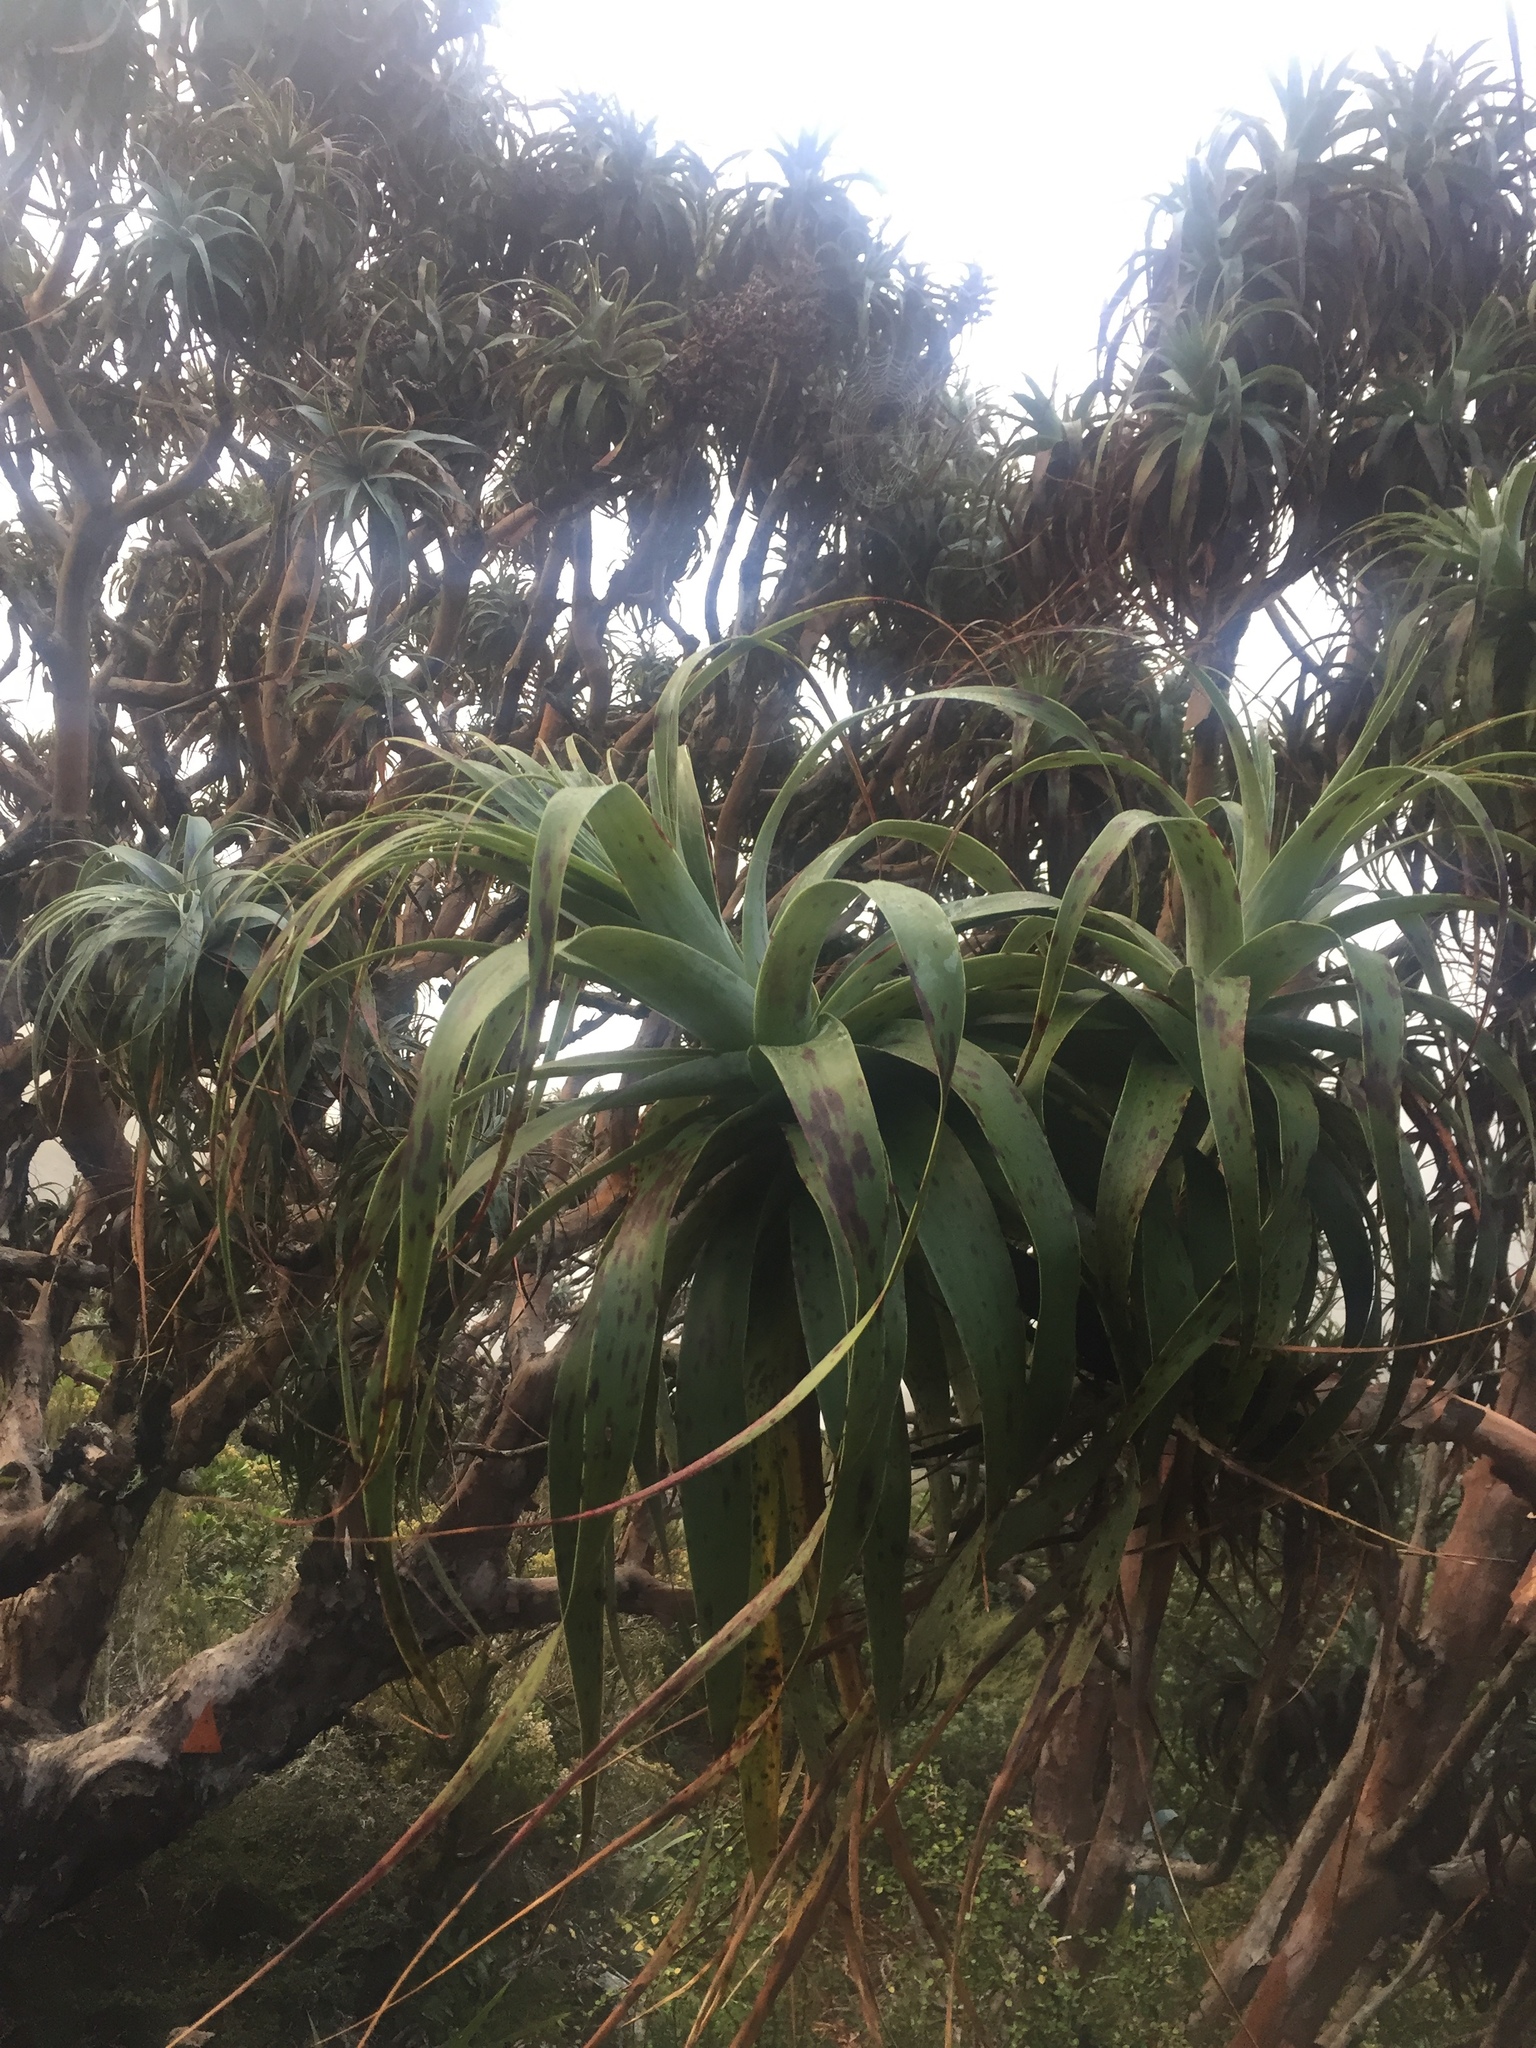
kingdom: Plantae
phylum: Tracheophyta
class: Magnoliopsida
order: Ericales
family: Ericaceae
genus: Dracophyllum
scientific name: Dracophyllum traversii
